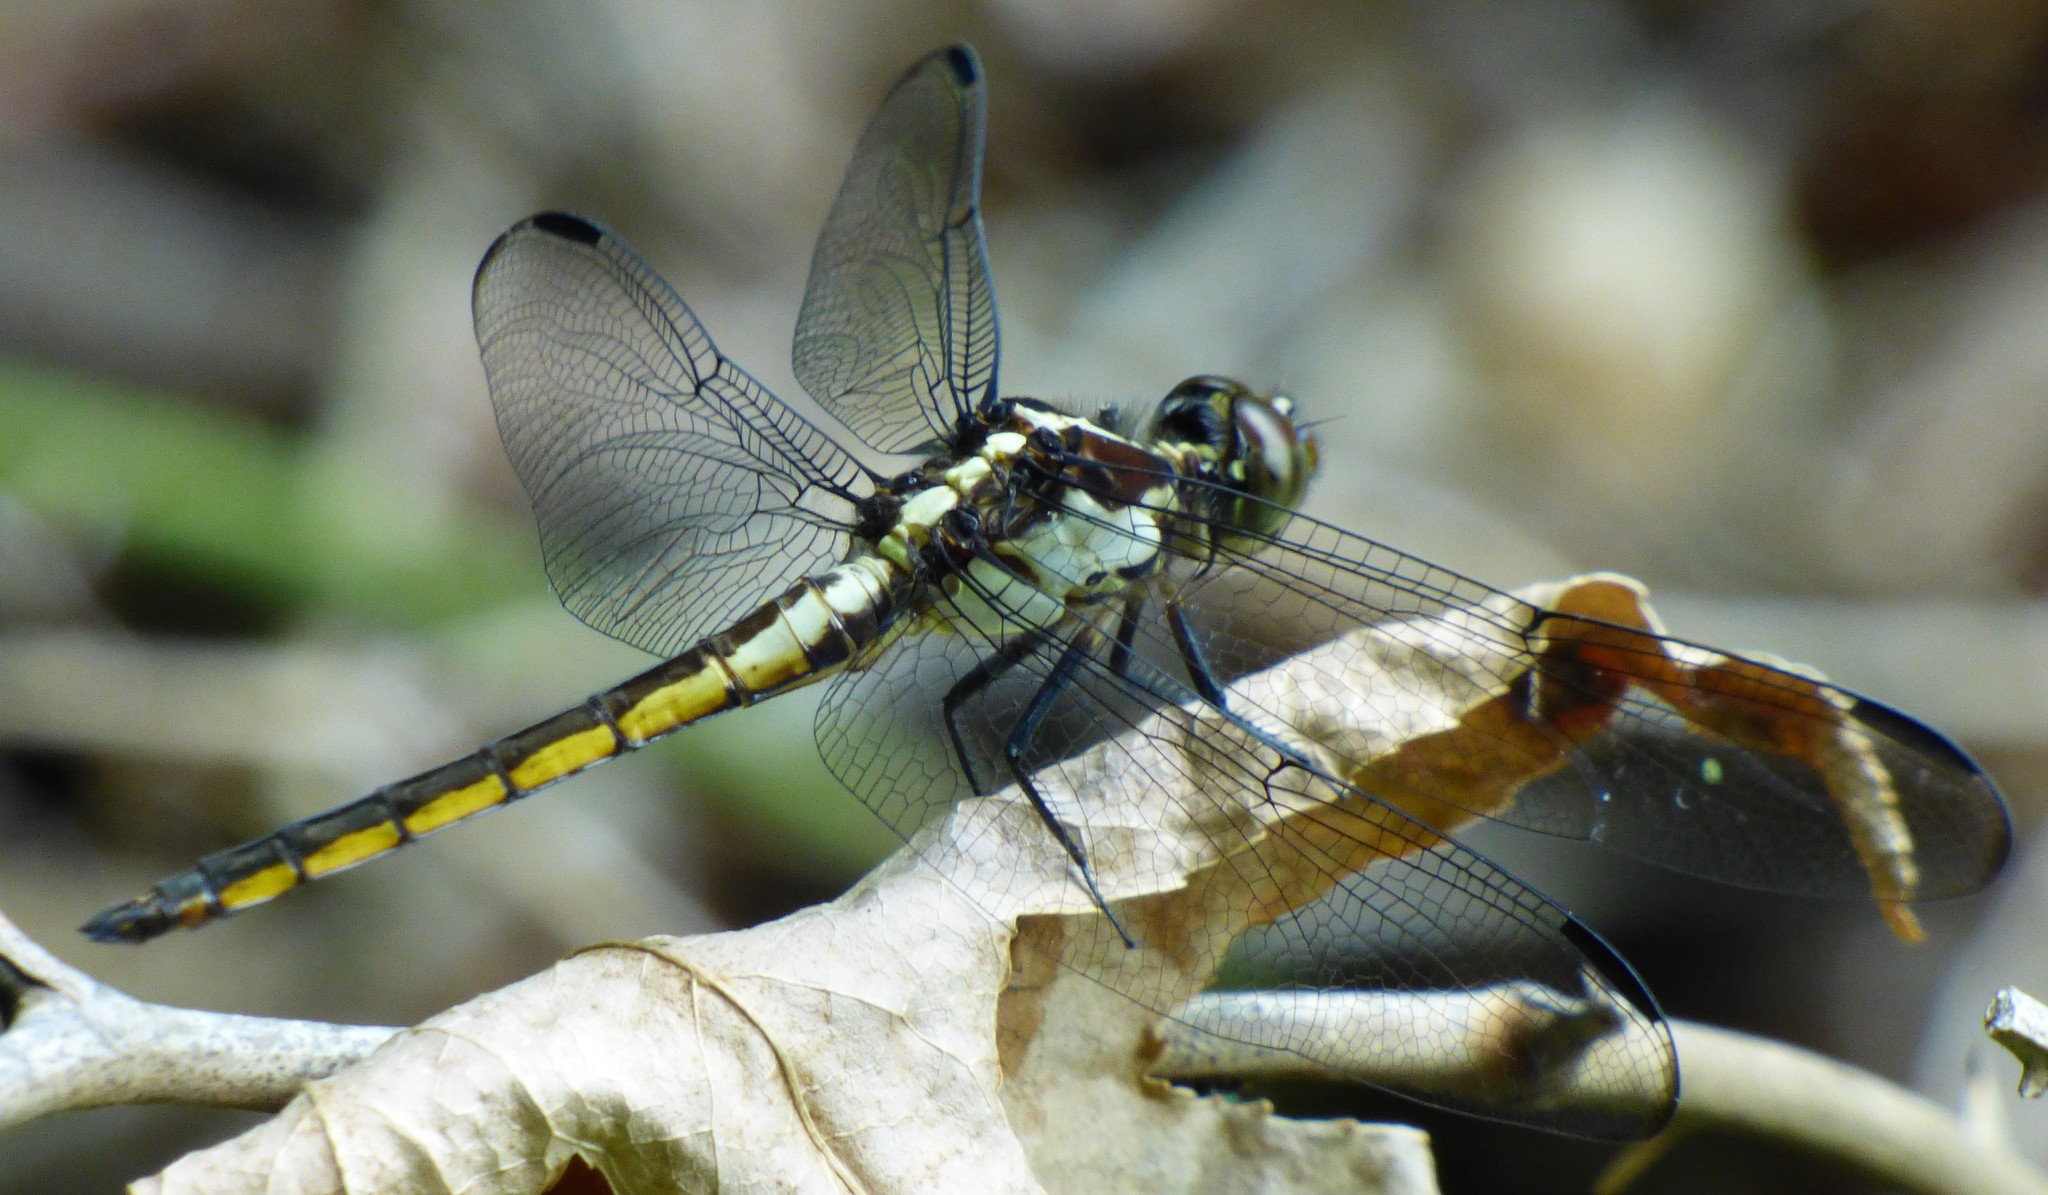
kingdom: Animalia
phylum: Arthropoda
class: Insecta
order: Odonata
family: Libellulidae
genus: Libellula
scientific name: Libellula incesta
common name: Slaty skimmer
